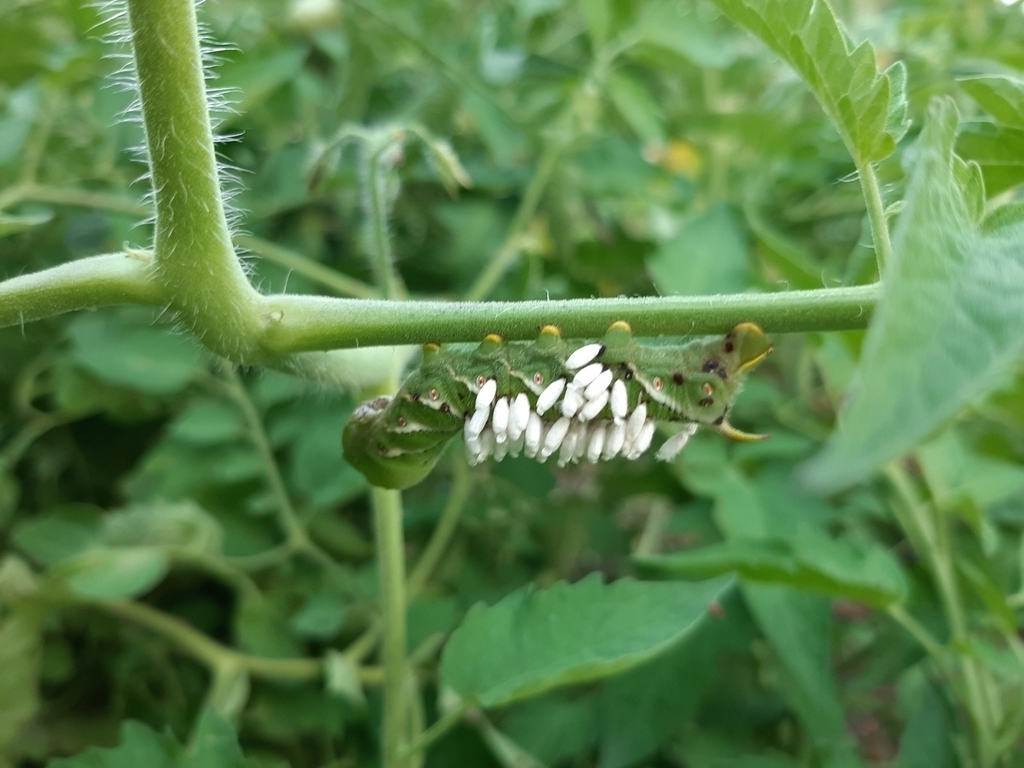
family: Polydnaviriformidae
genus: Bracoviriform
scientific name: Bracoviriform congregatae
